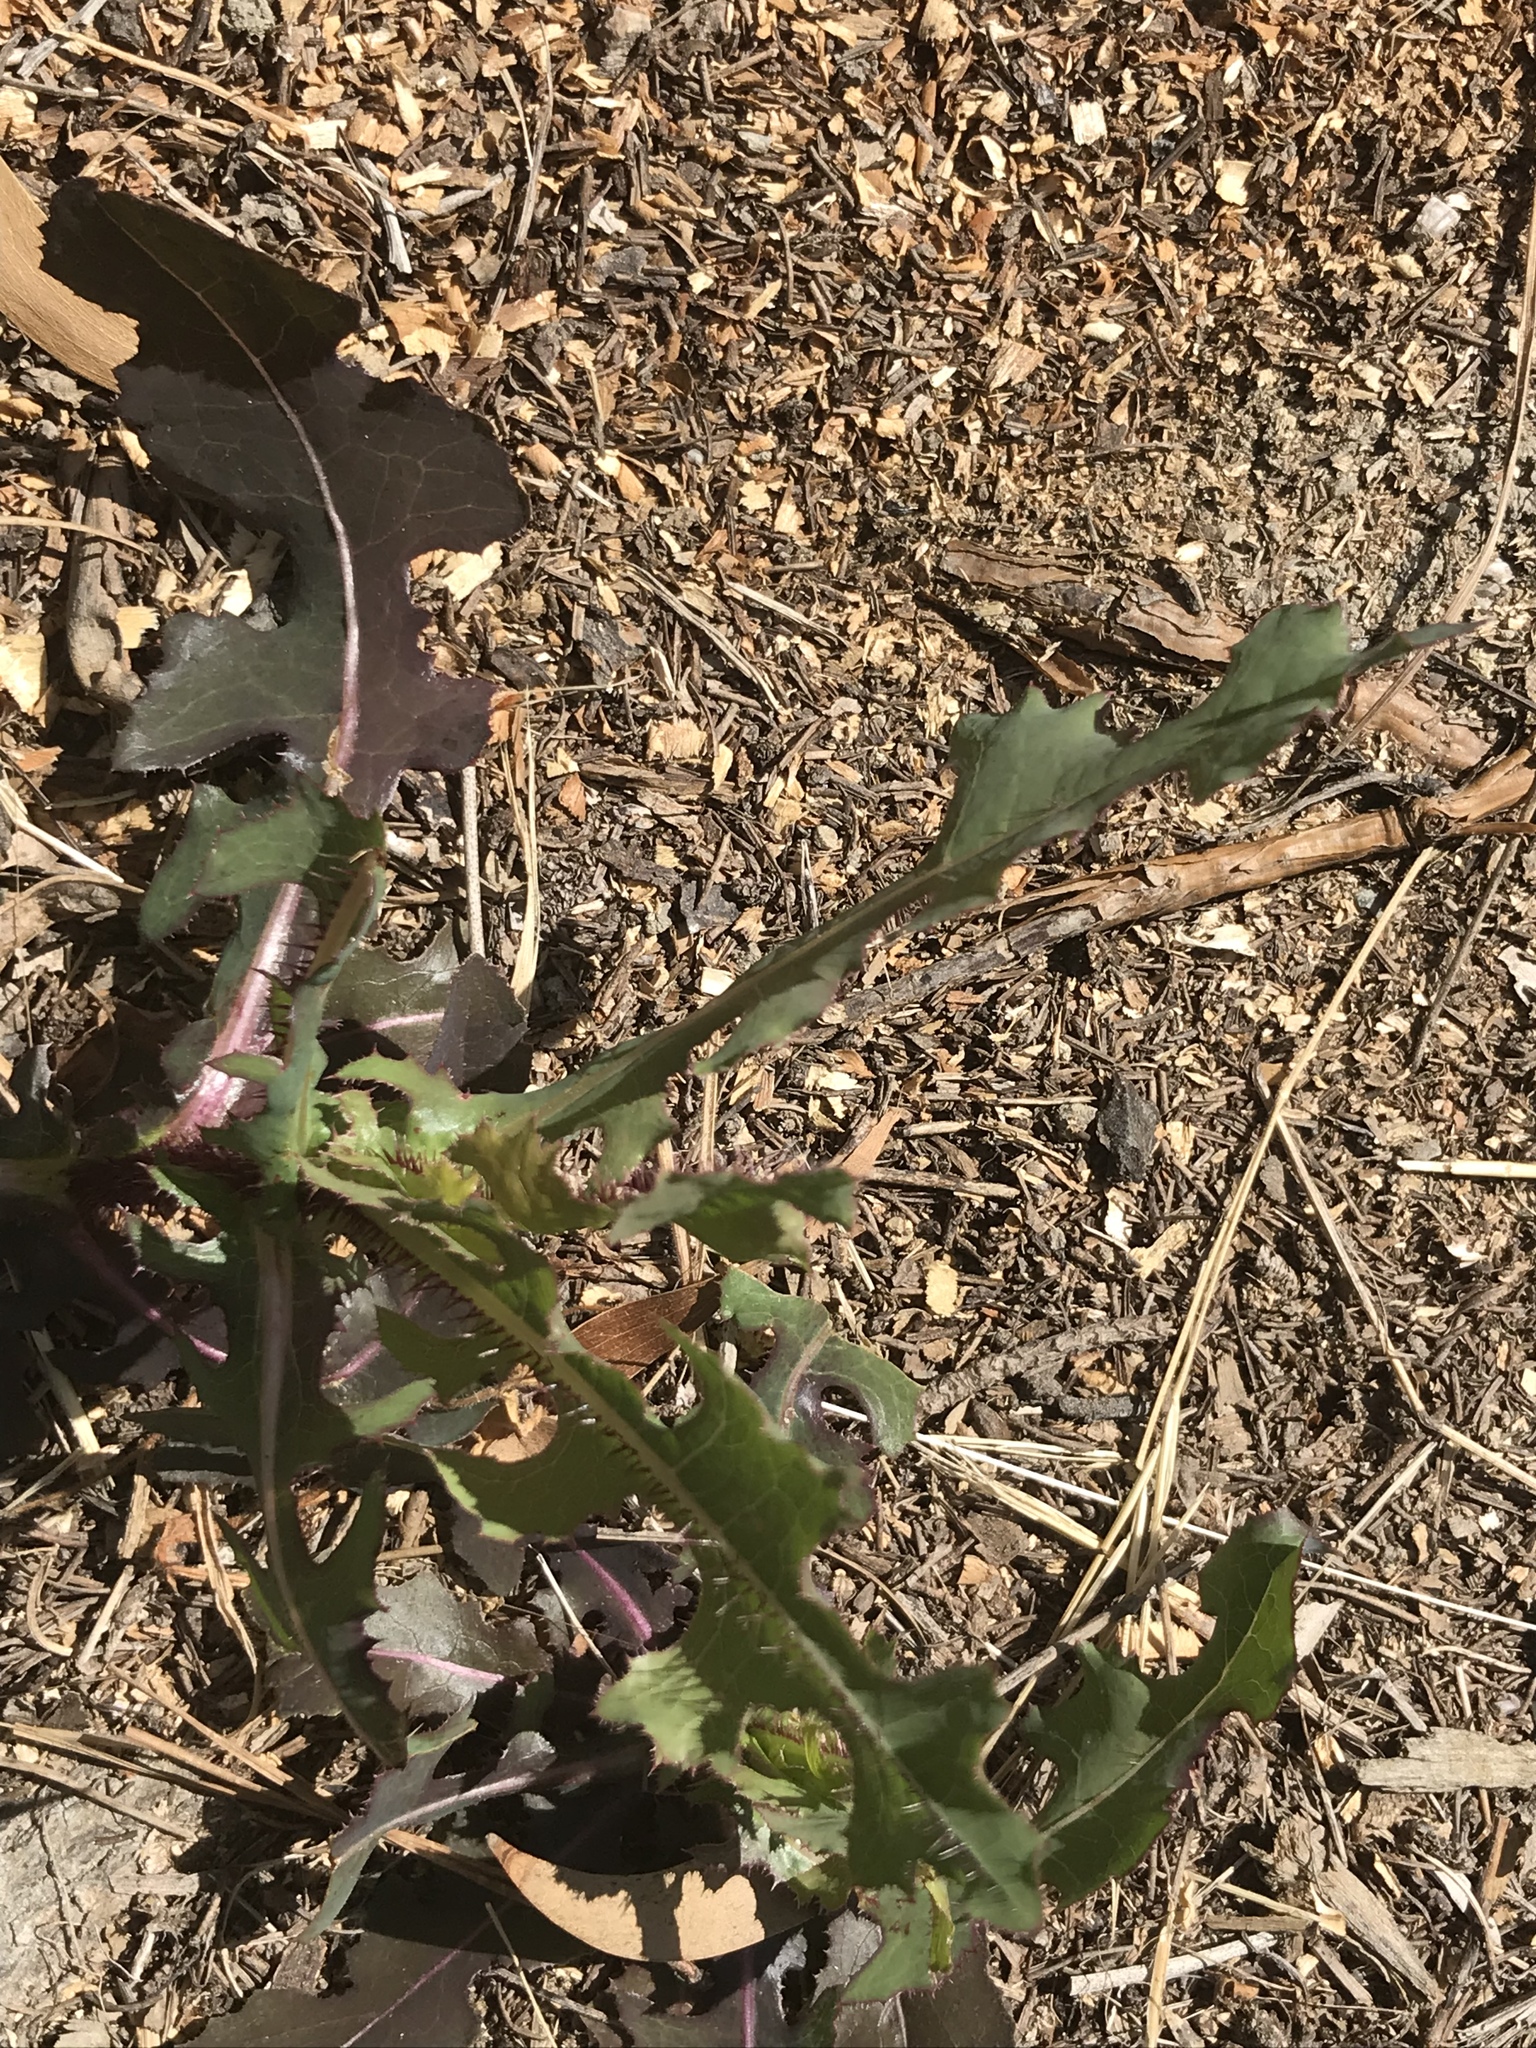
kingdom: Plantae
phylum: Tracheophyta
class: Magnoliopsida
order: Asterales
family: Asteraceae
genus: Lactuca
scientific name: Lactuca serriola
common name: Prickly lettuce
